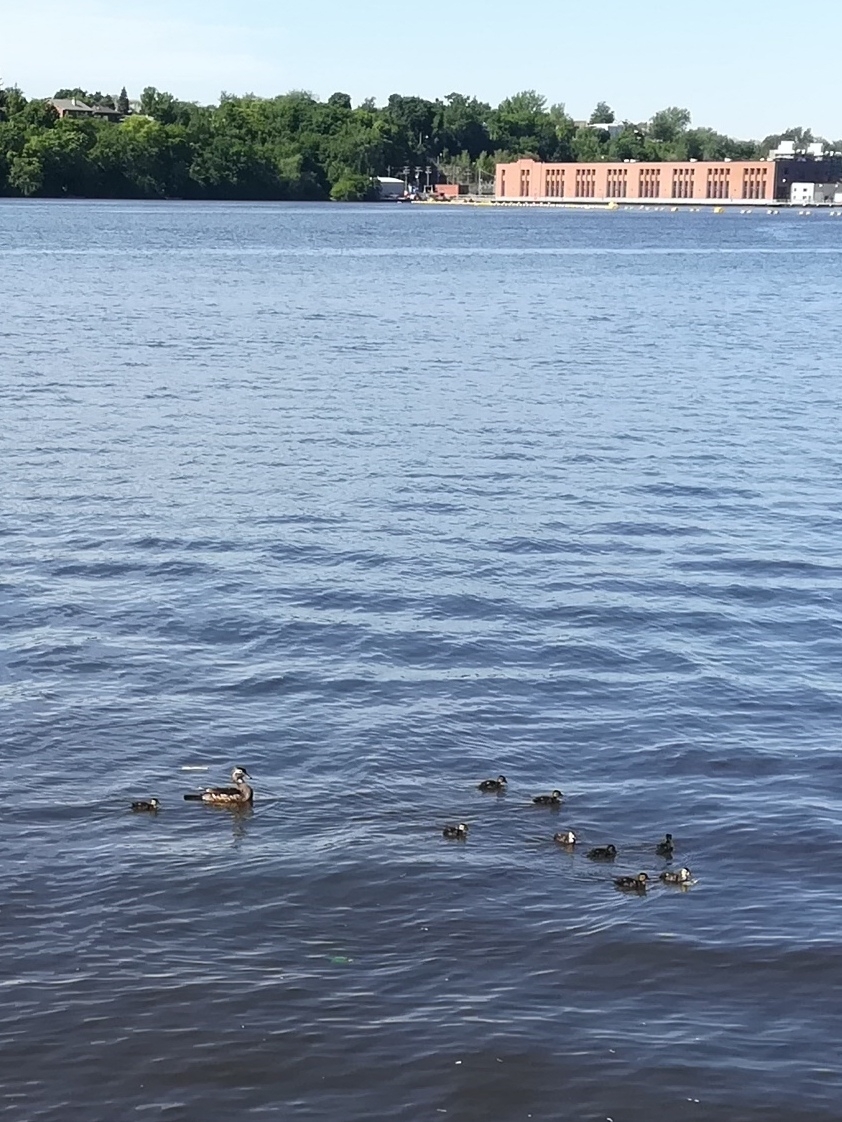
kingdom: Animalia
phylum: Chordata
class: Aves
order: Anseriformes
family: Anatidae
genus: Aix
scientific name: Aix sponsa
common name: Wood duck
